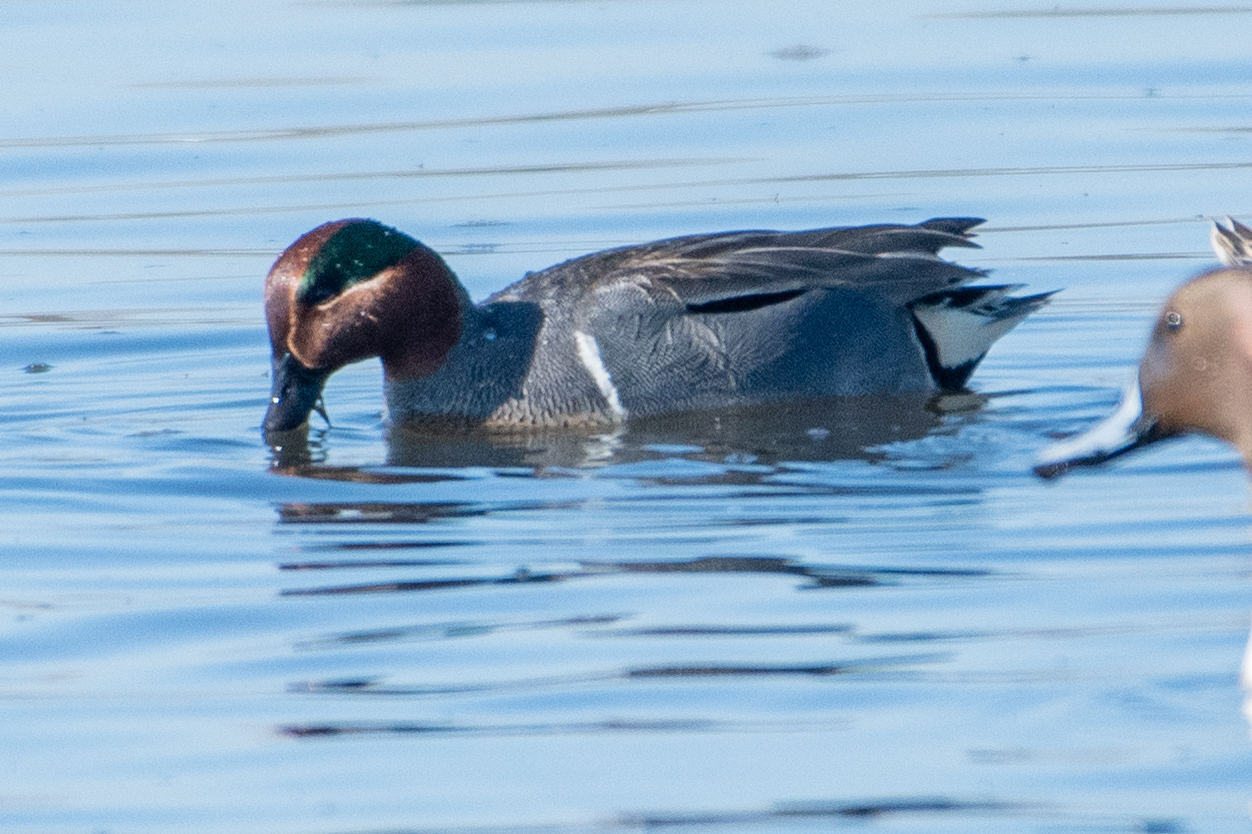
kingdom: Animalia
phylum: Chordata
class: Aves
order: Anseriformes
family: Anatidae
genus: Anas
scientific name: Anas crecca
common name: Eurasian teal
